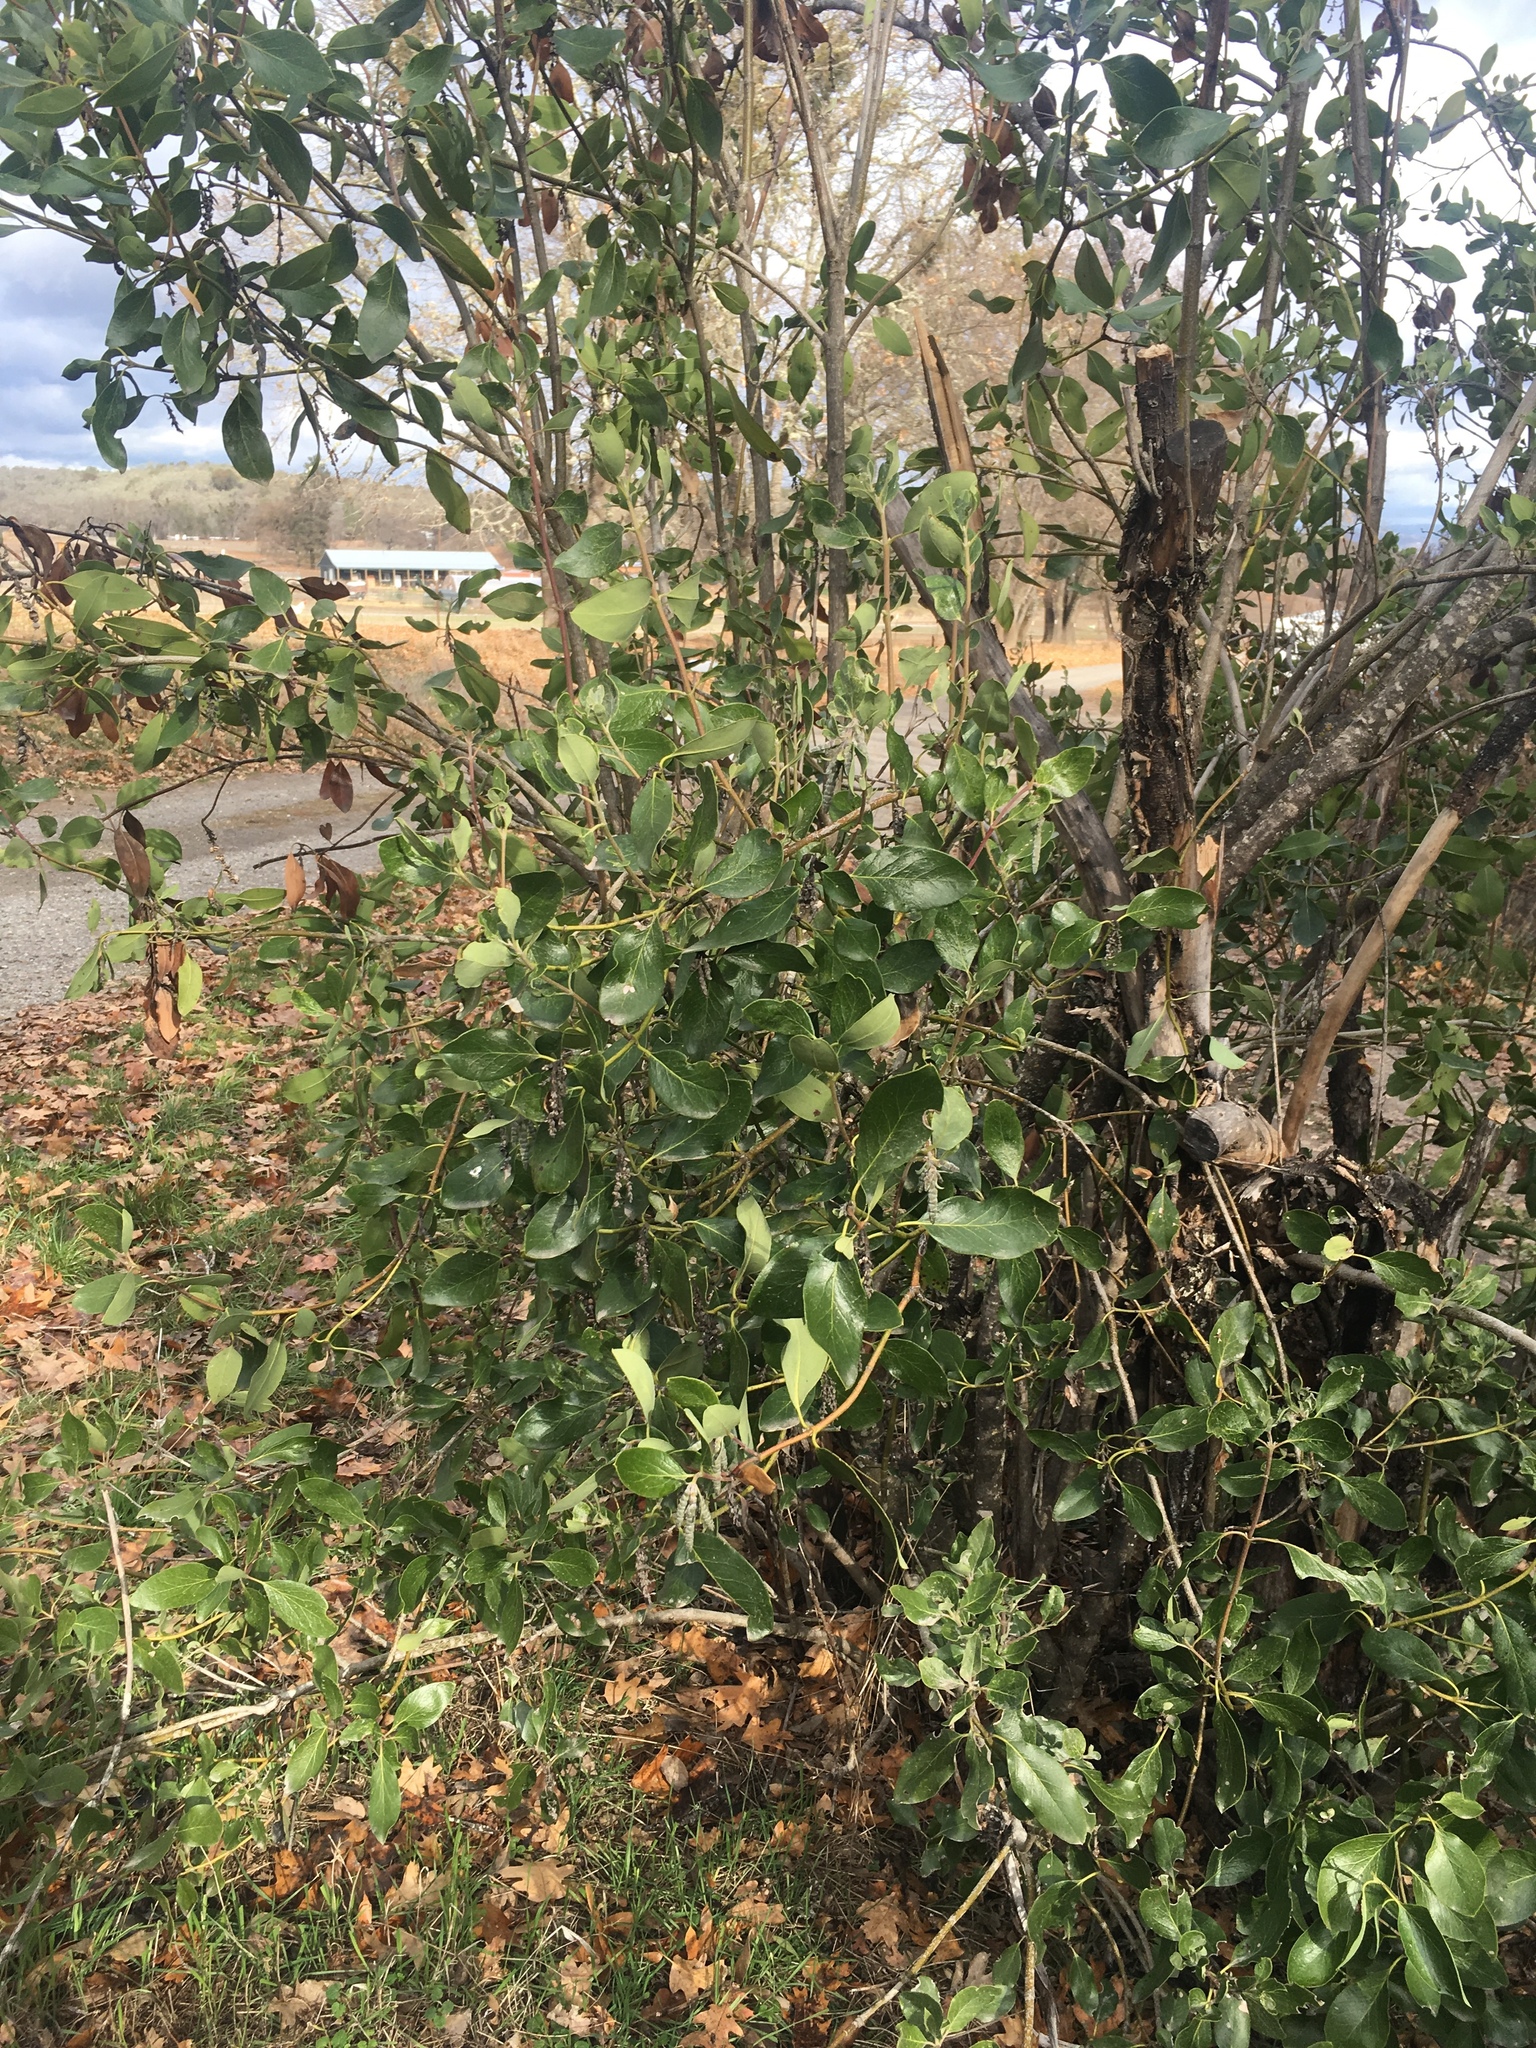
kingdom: Plantae
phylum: Tracheophyta
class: Magnoliopsida
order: Garryales
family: Garryaceae
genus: Garrya
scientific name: Garrya fremontii
